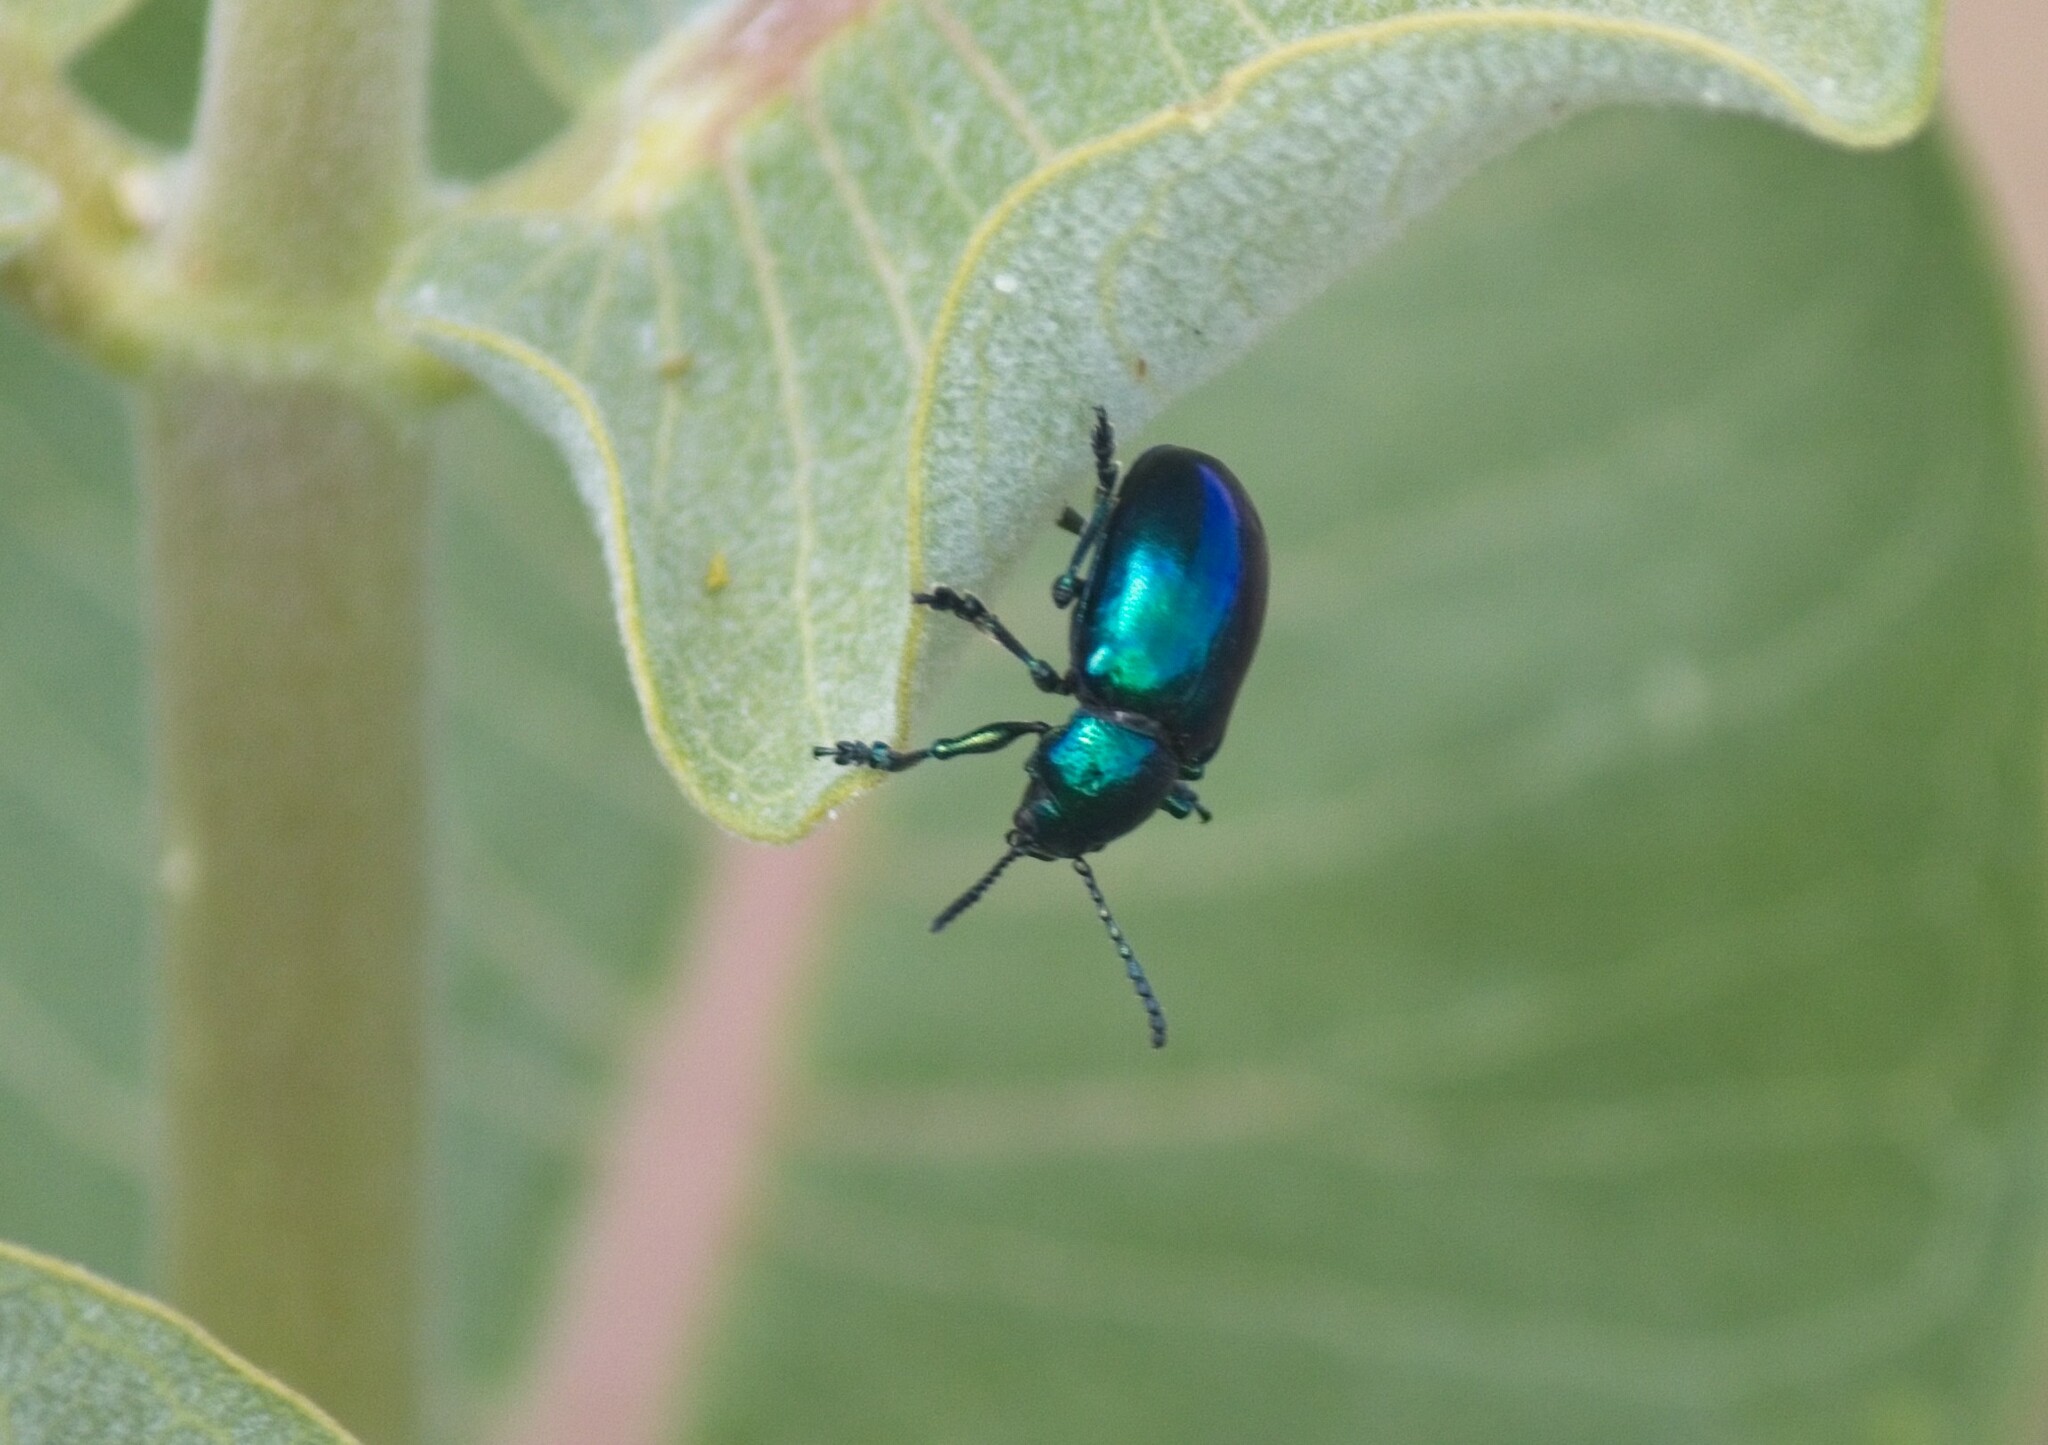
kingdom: Animalia
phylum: Arthropoda
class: Insecta
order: Coleoptera
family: Chrysomelidae
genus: Chrysochus
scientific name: Chrysochus cobaltinus
